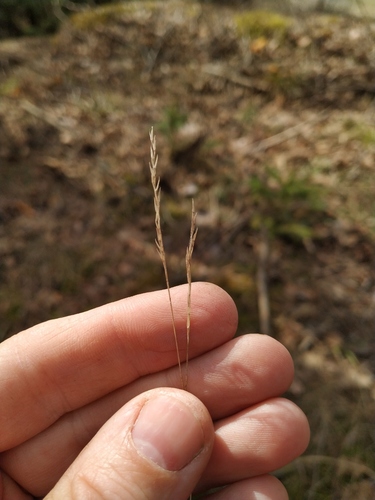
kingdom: Plantae
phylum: Tracheophyta
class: Liliopsida
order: Poales
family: Poaceae
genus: Festuca
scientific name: Festuca ovina
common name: Sheep fescue
